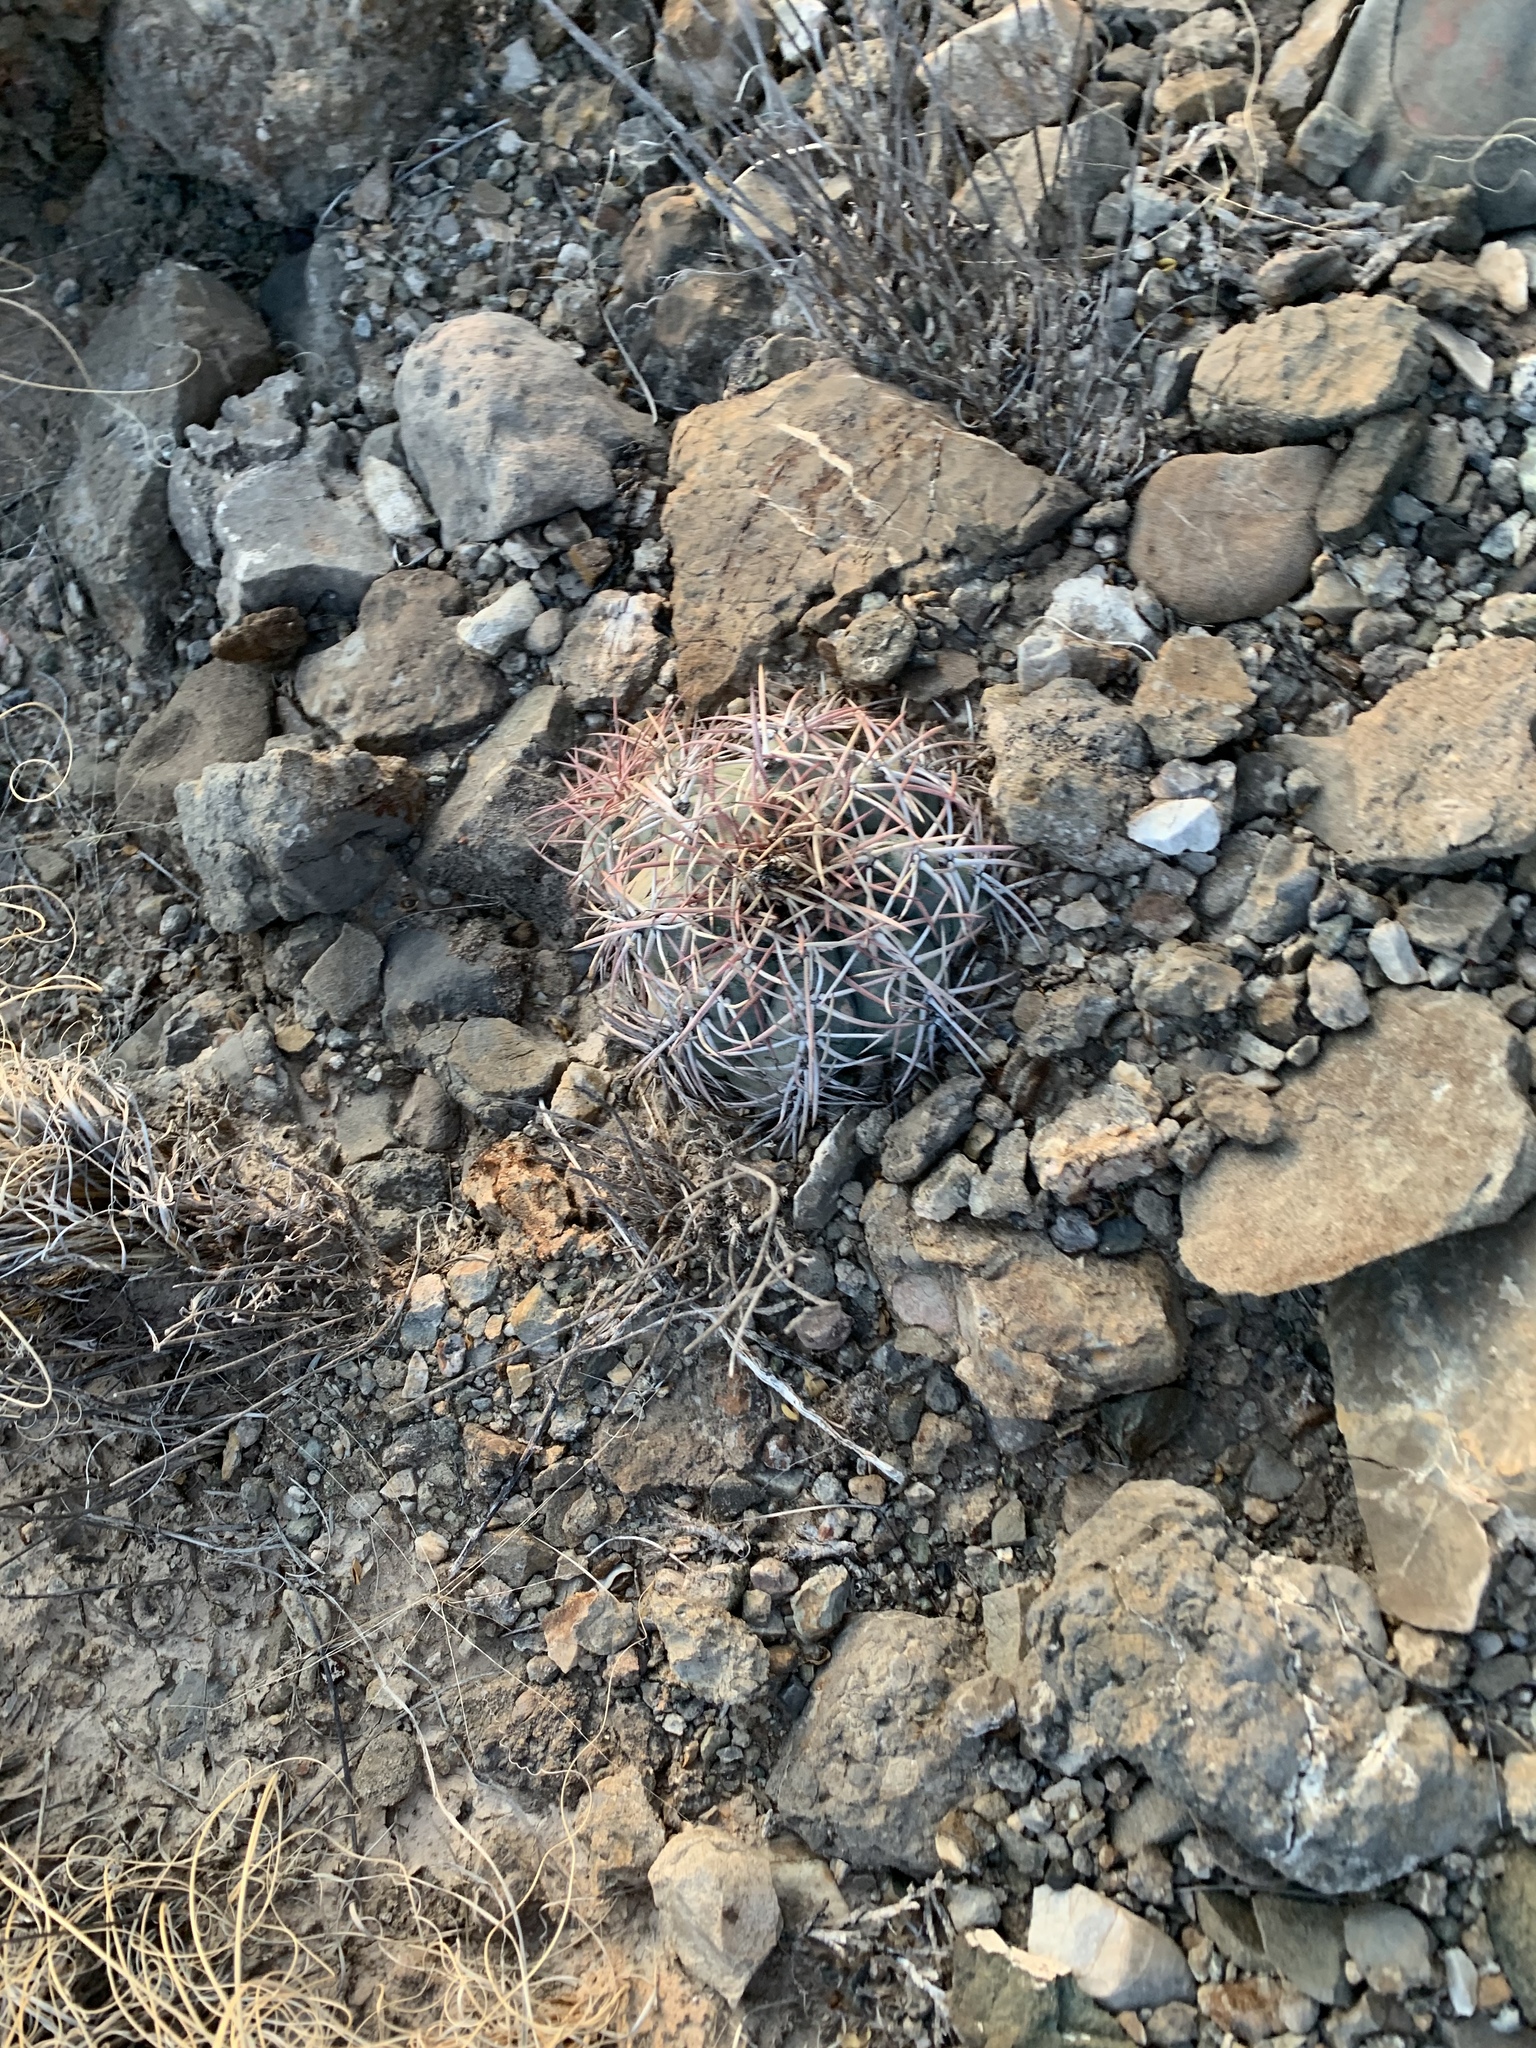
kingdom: Plantae
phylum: Tracheophyta
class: Magnoliopsida
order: Caryophyllales
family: Cactaceae
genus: Echinocactus
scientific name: Echinocactus horizonthalonius
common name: Devilshead
